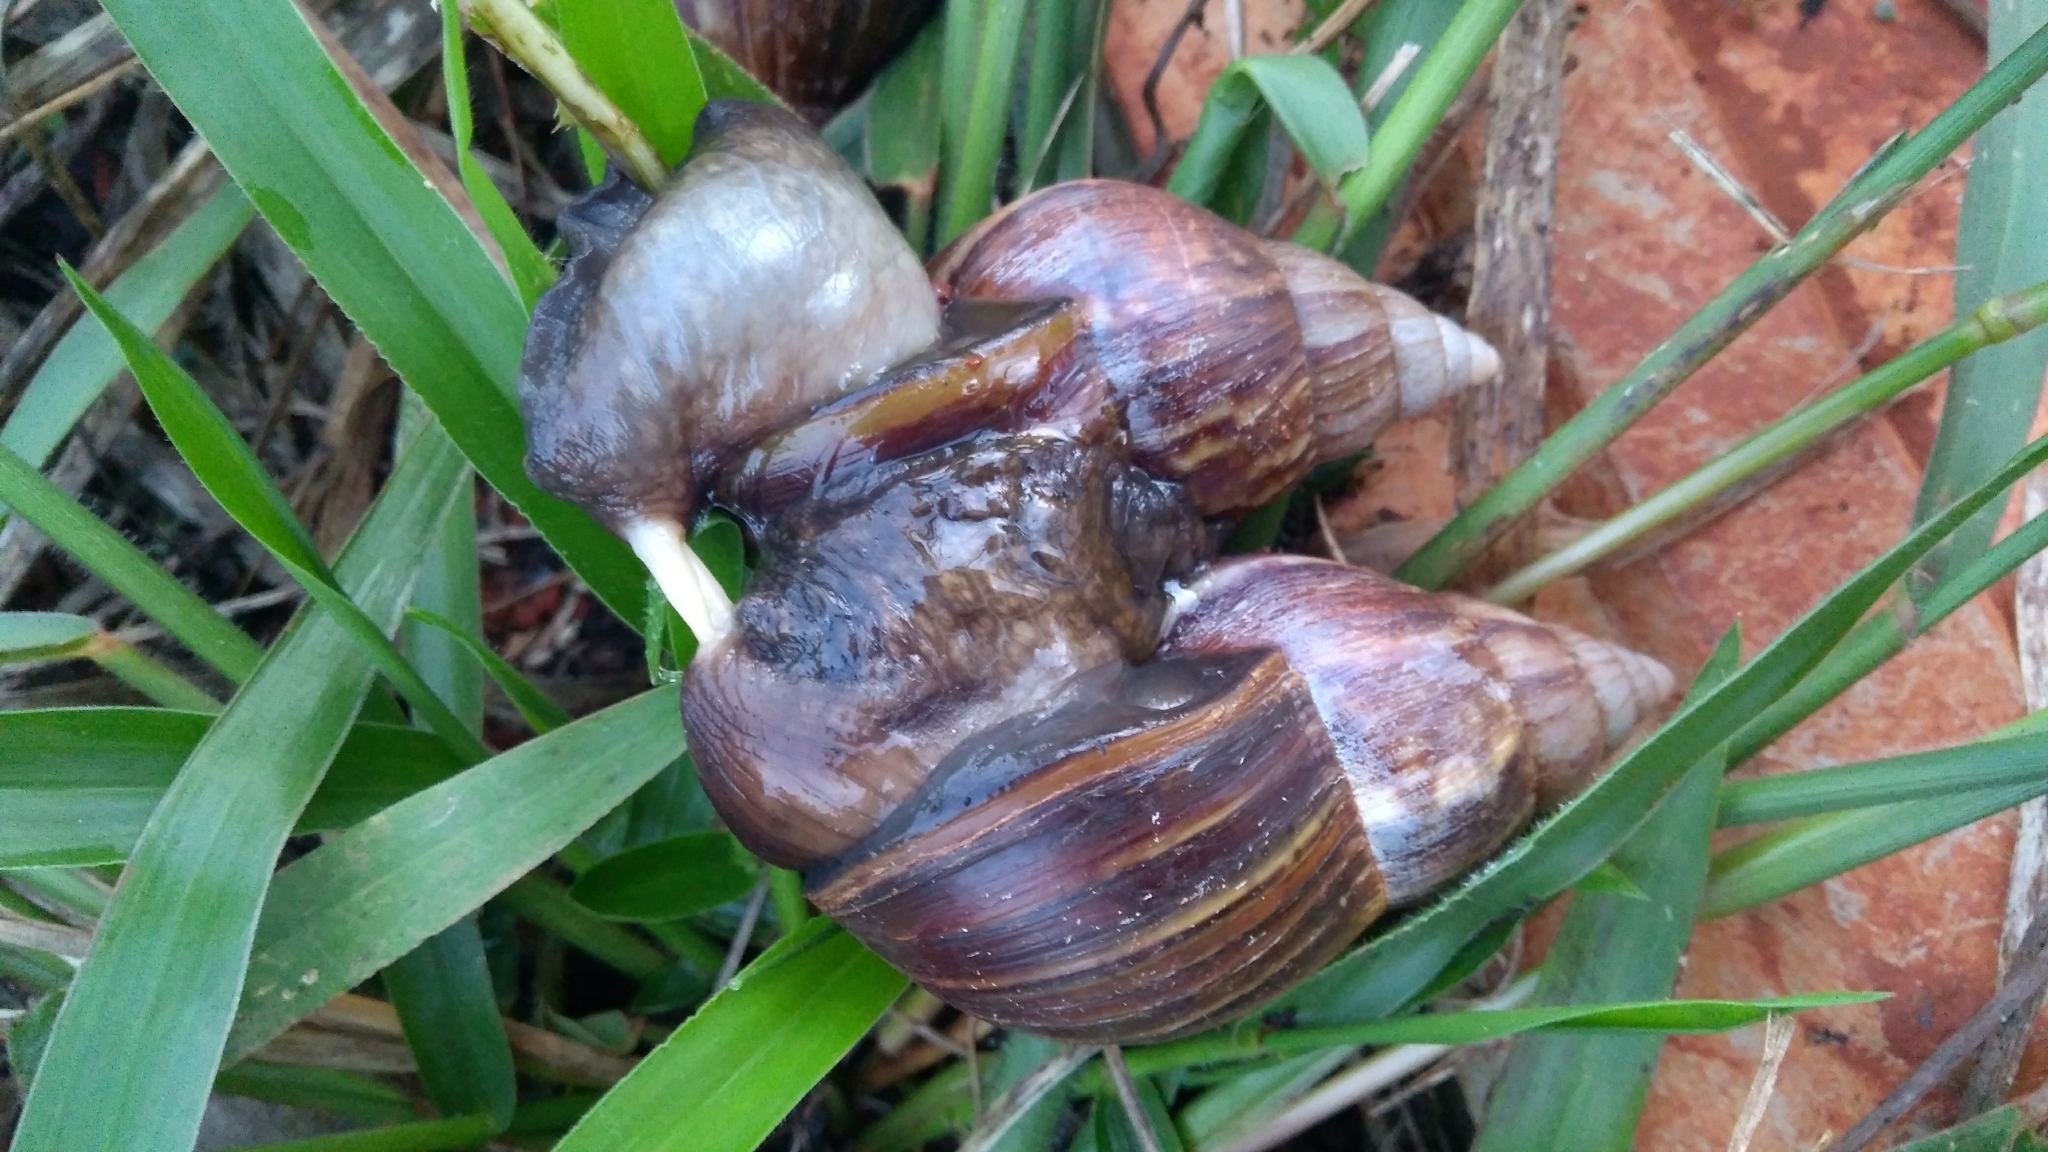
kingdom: Animalia
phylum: Mollusca
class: Gastropoda
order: Stylommatophora
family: Achatinidae
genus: Lissachatina
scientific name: Lissachatina fulica
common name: Giant african snail
